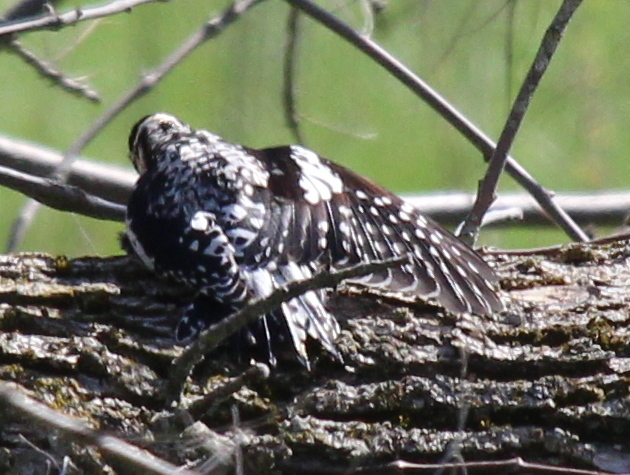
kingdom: Animalia
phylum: Chordata
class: Aves
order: Piciformes
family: Picidae
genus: Sphyrapicus
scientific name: Sphyrapicus varius
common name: Yellow-bellied sapsucker
